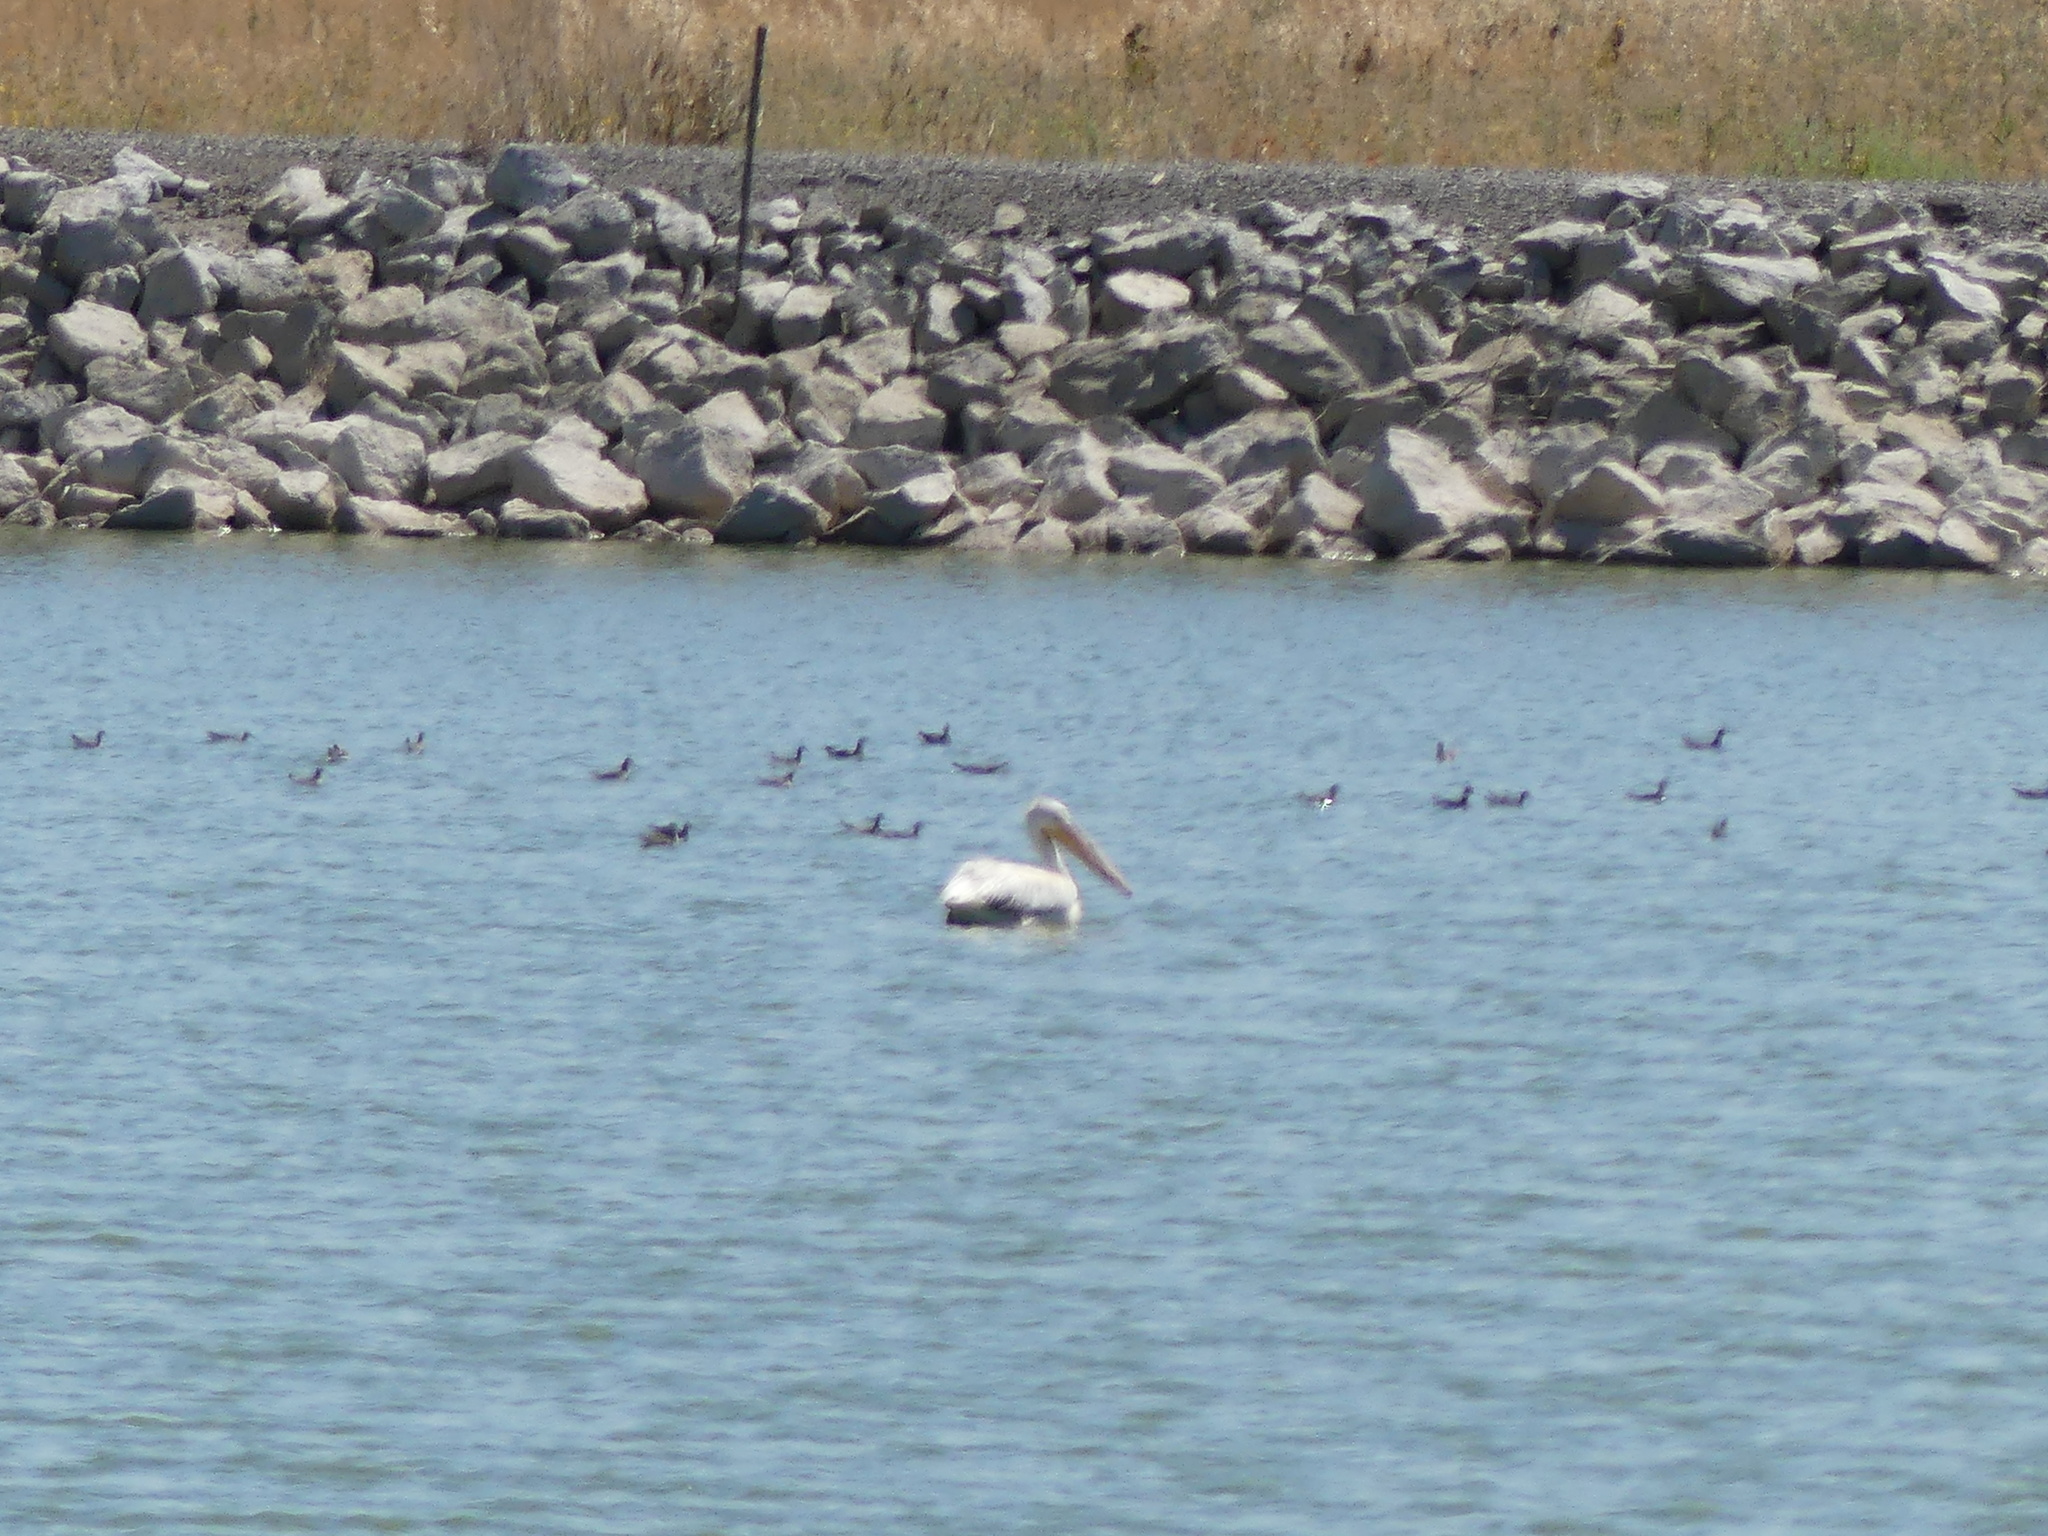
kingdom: Animalia
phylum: Chordata
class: Aves
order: Pelecaniformes
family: Pelecanidae
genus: Pelecanus
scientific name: Pelecanus erythrorhynchos
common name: American white pelican
